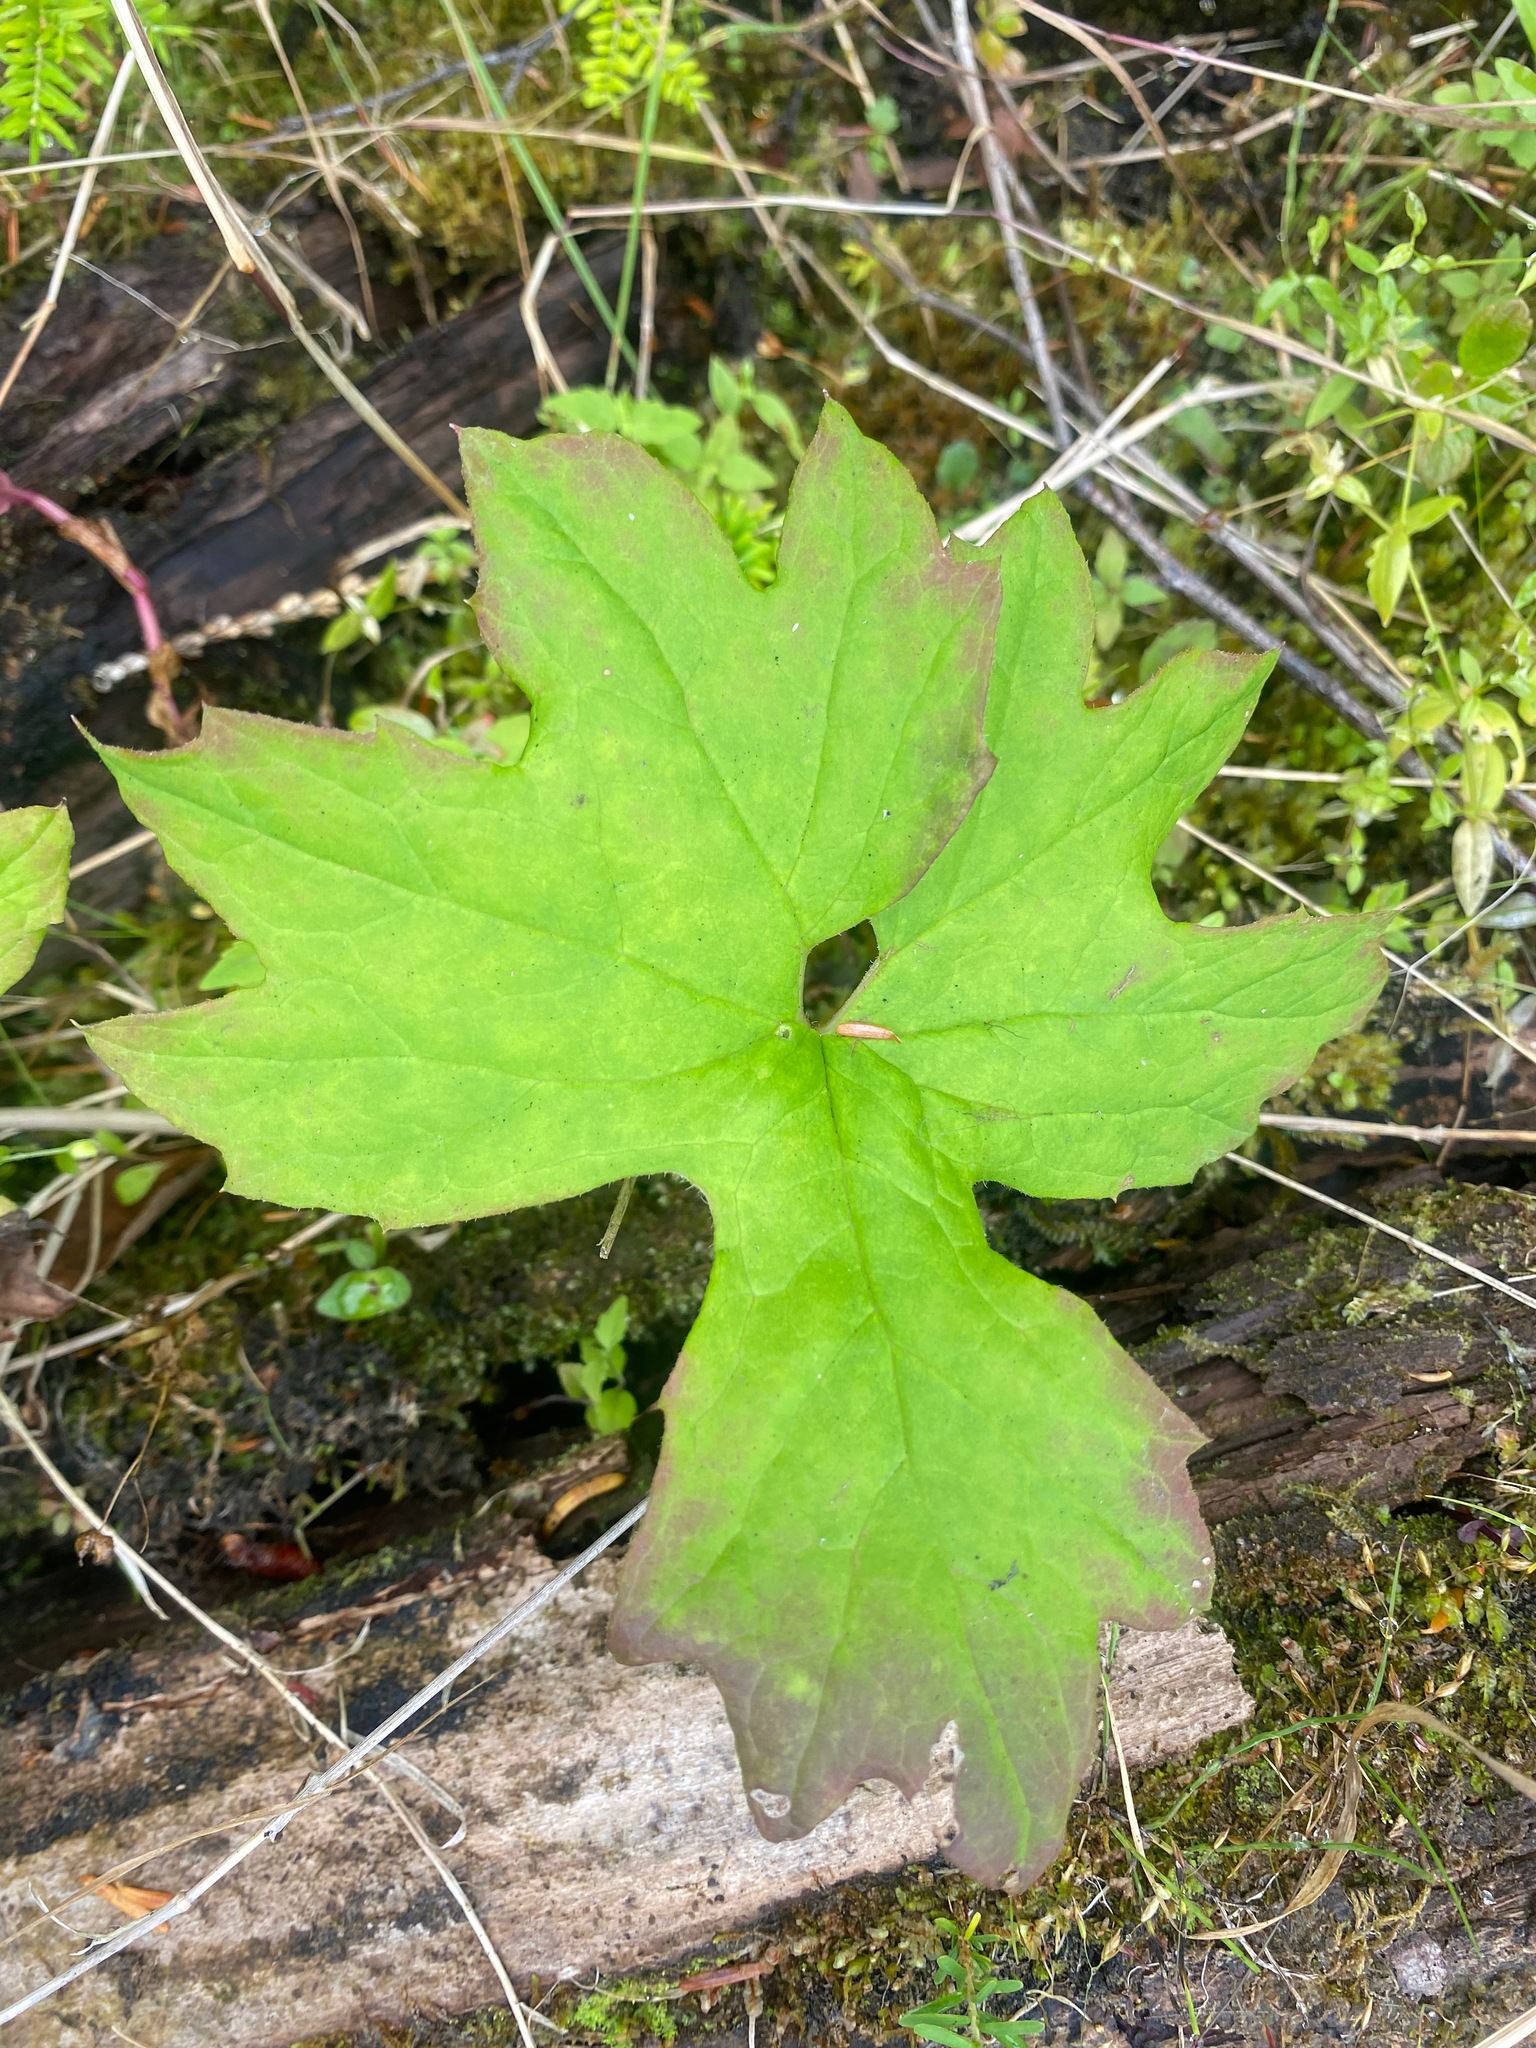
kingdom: Plantae
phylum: Tracheophyta
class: Magnoliopsida
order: Asterales
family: Asteraceae
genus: Petasites
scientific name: Petasites frigidus
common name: Arctic butterbur
